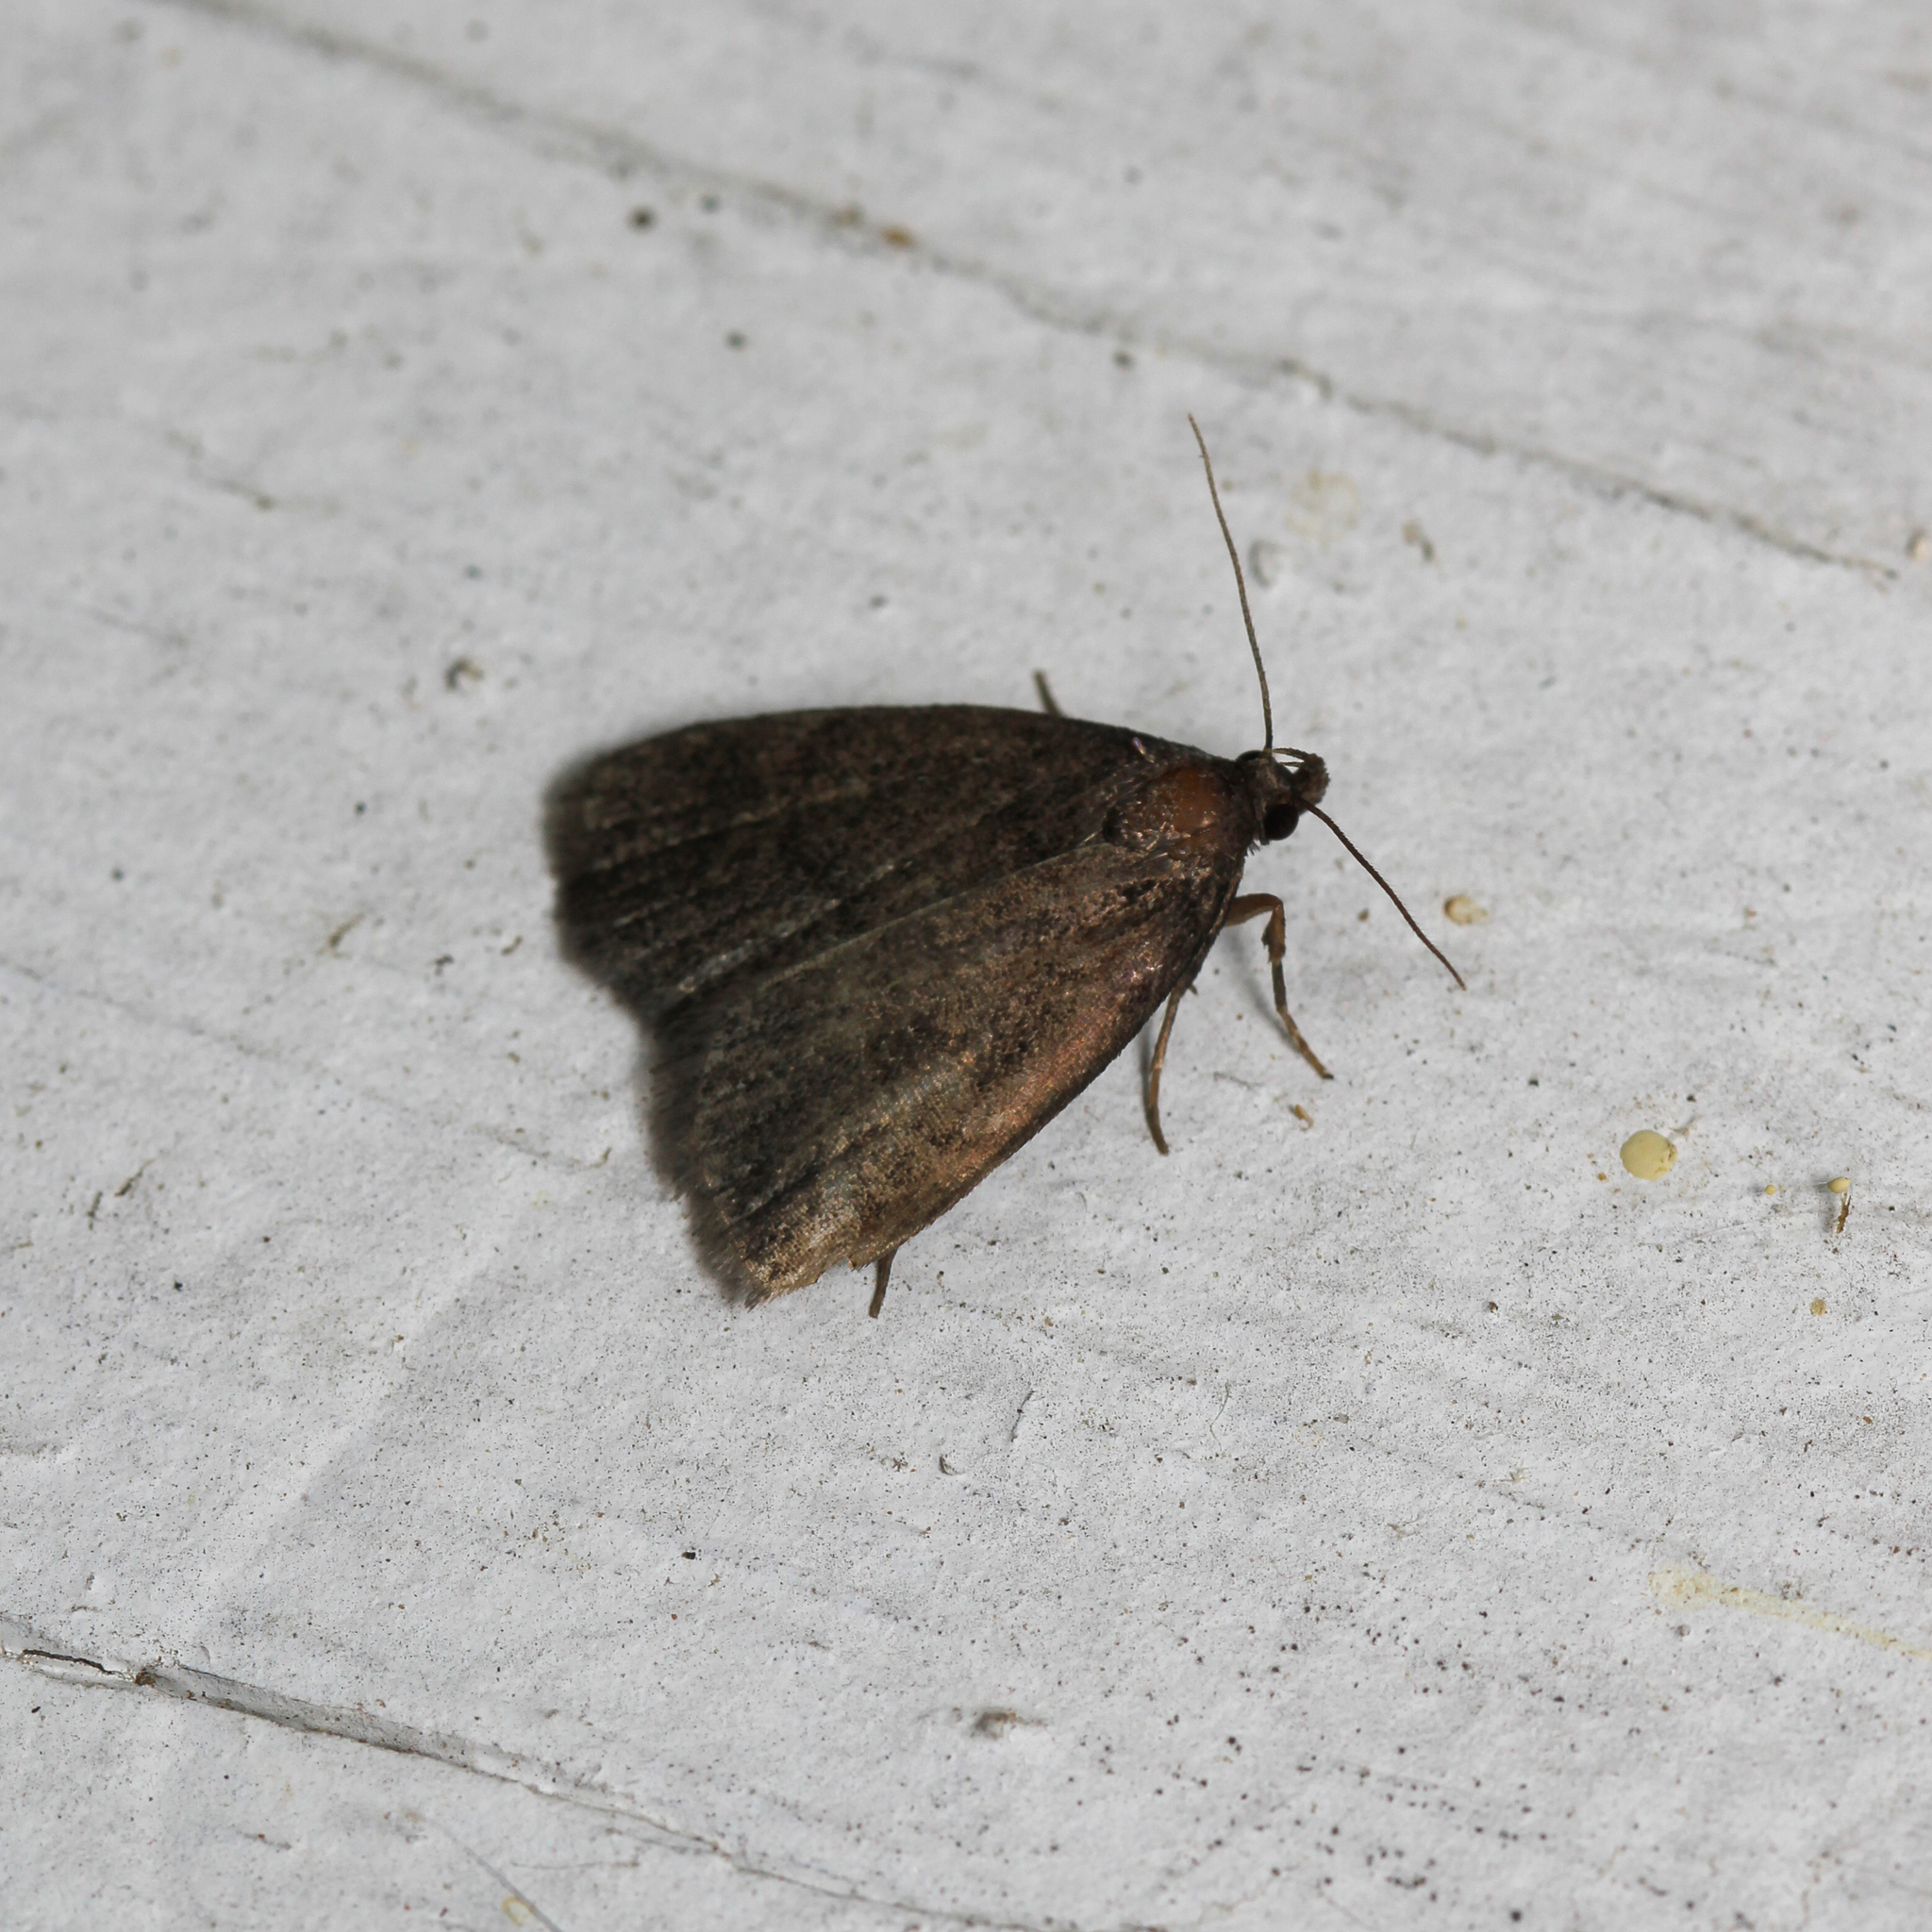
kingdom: Animalia
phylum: Arthropoda
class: Insecta
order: Lepidoptera
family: Erebidae
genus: Idia
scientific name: Idia rotundalis
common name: Rotund idia moth
